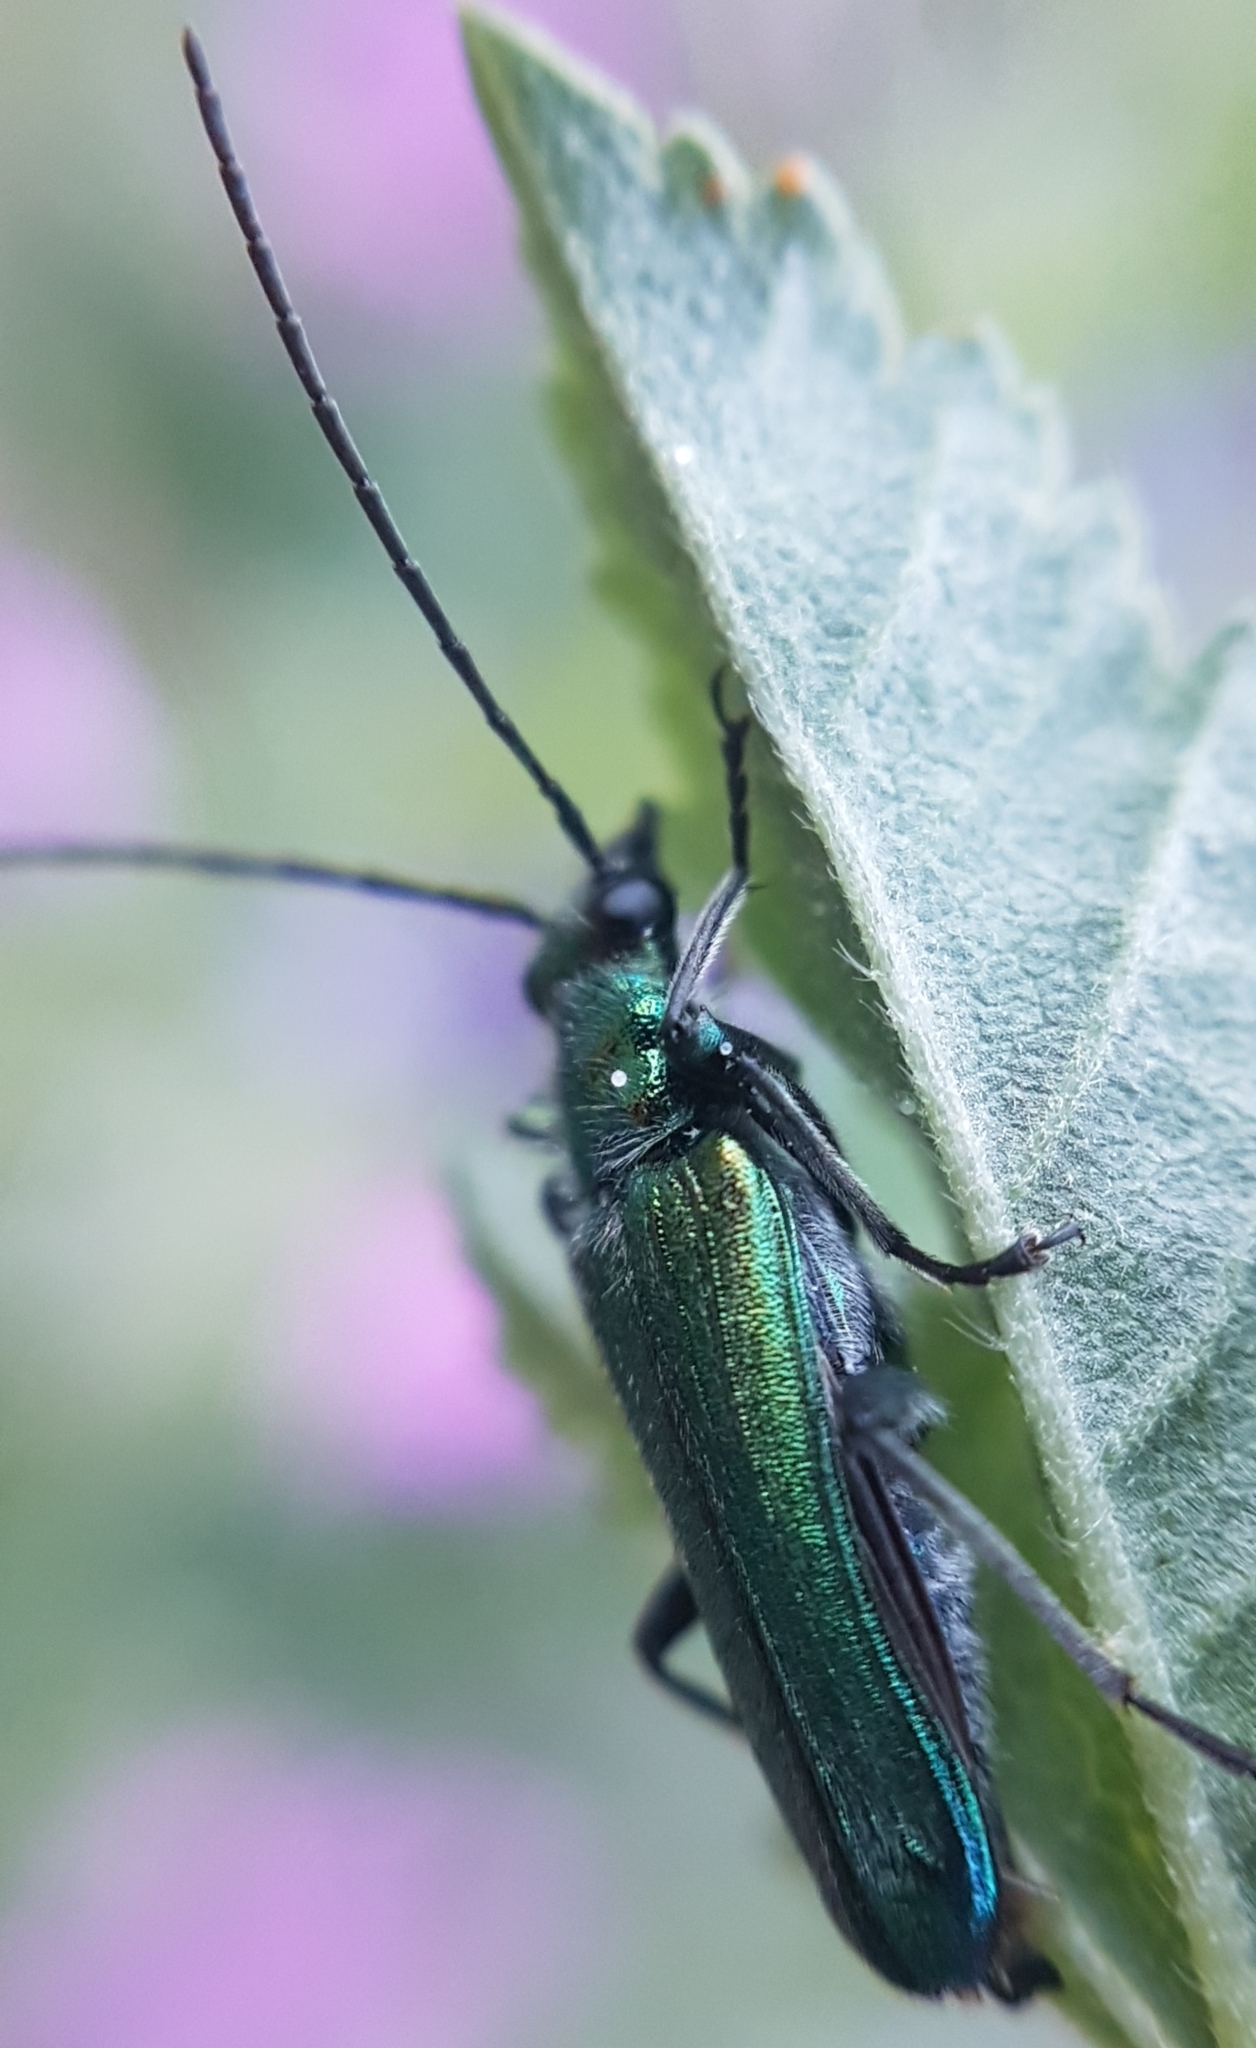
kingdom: Animalia
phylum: Arthropoda
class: Insecta
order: Coleoptera
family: Oedemeridae
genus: Anogcodes
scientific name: Anogcodes seladonius
